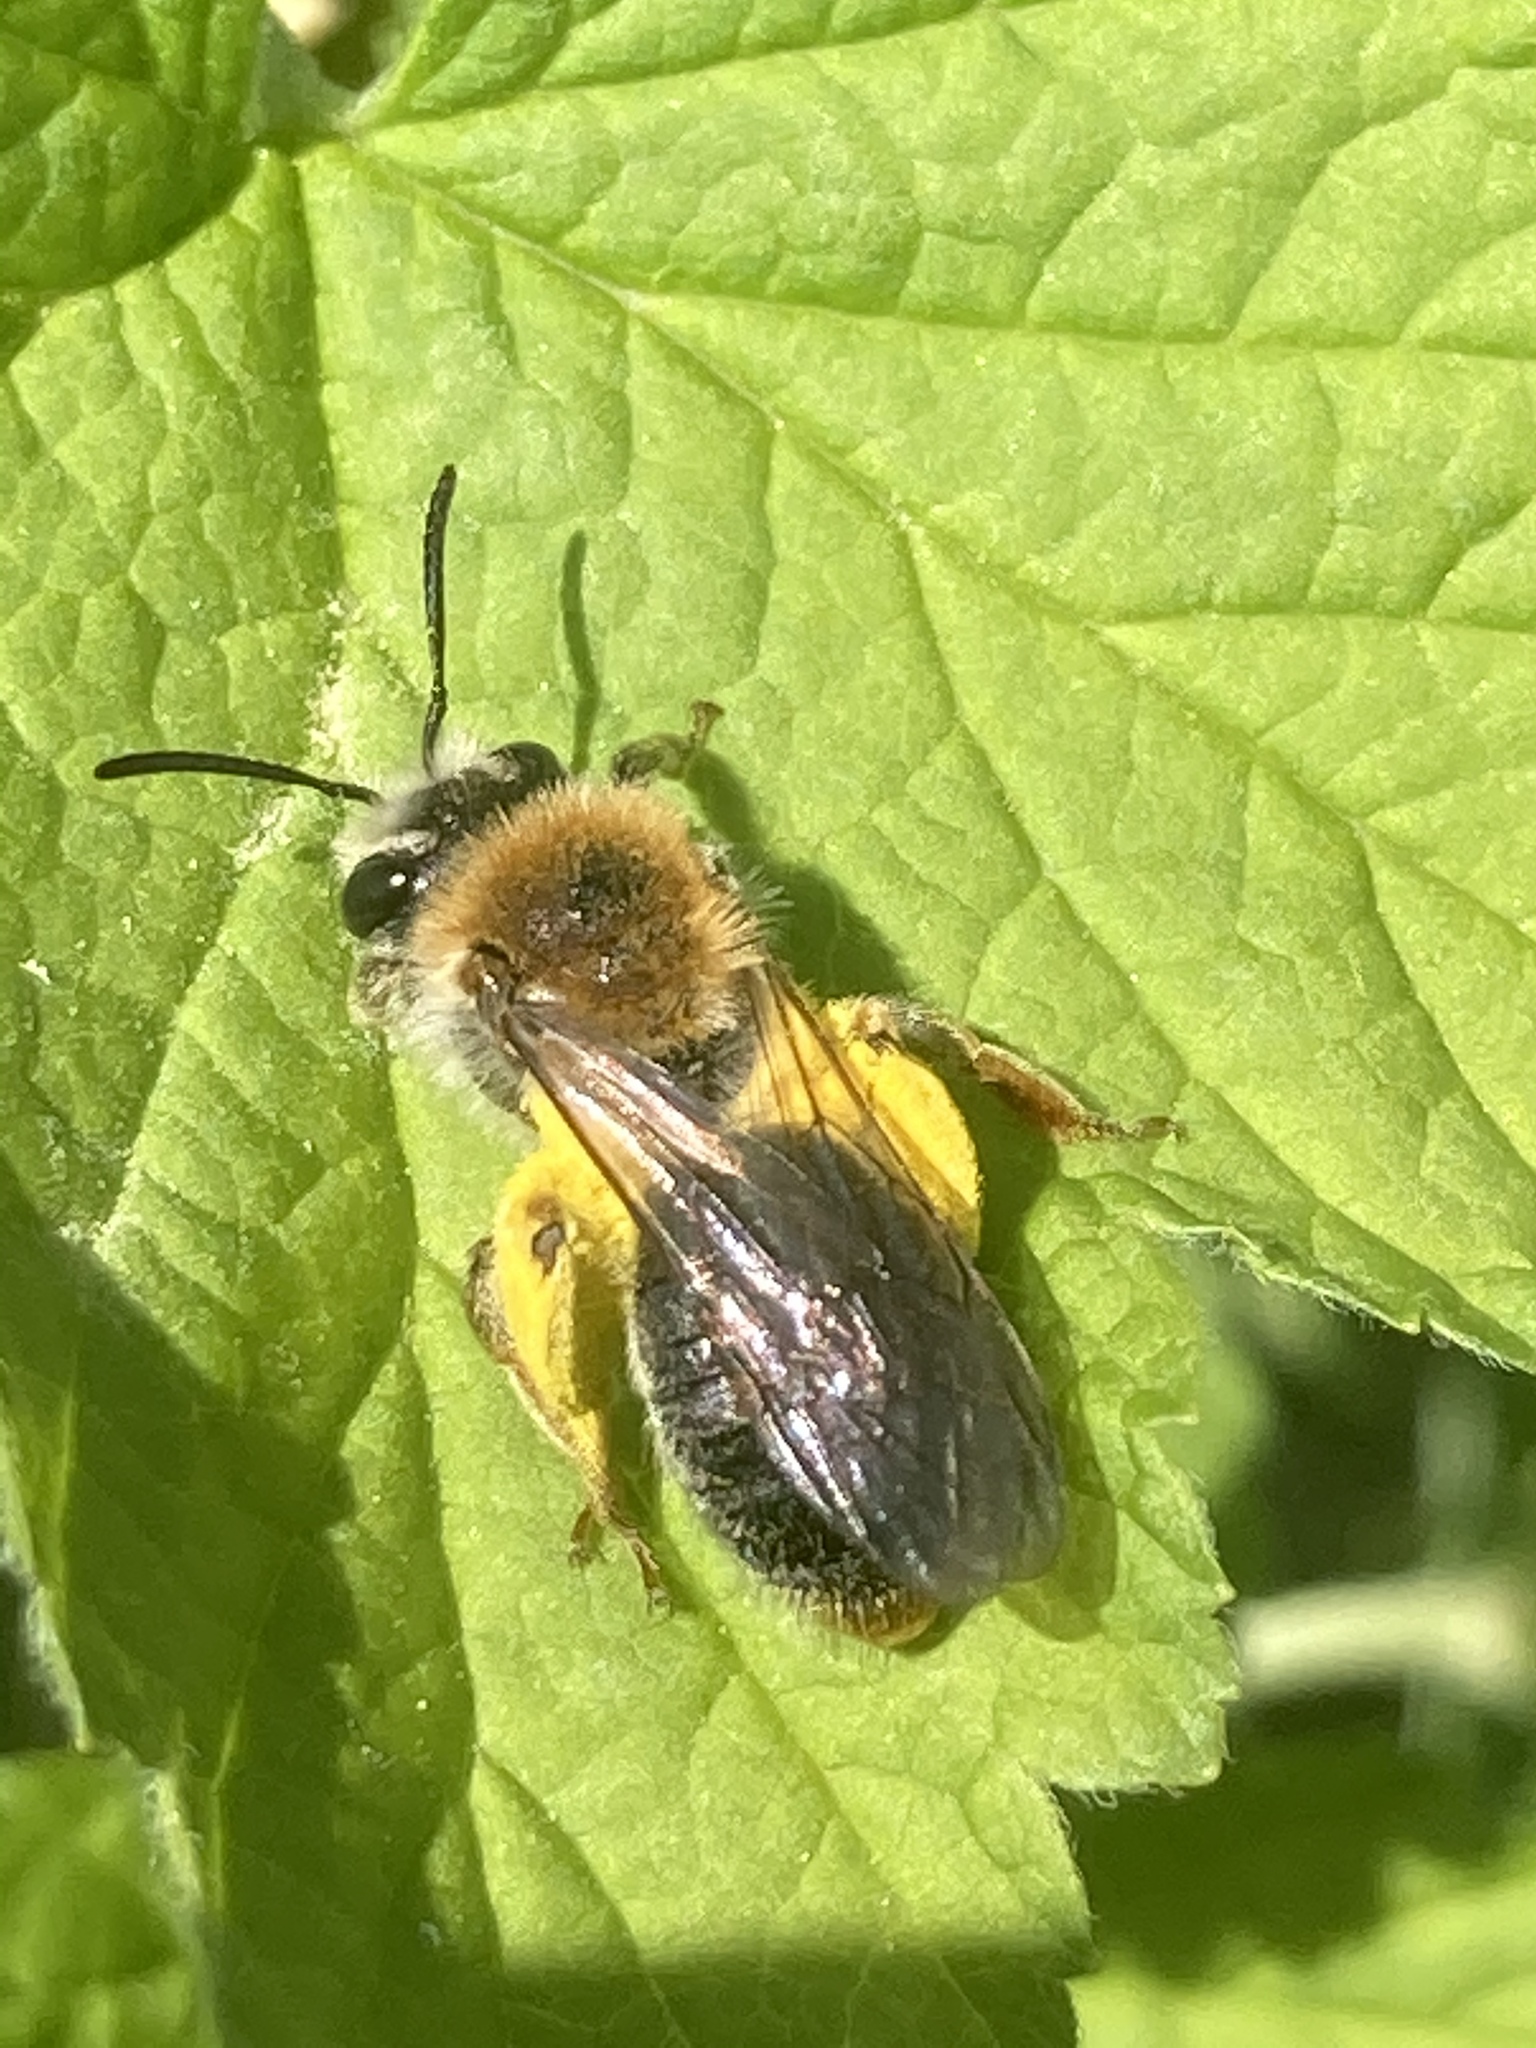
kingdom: Animalia
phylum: Arthropoda
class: Insecta
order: Hymenoptera
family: Andrenidae
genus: Andrena
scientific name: Andrena haemorrhoa
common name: Early mining bee
